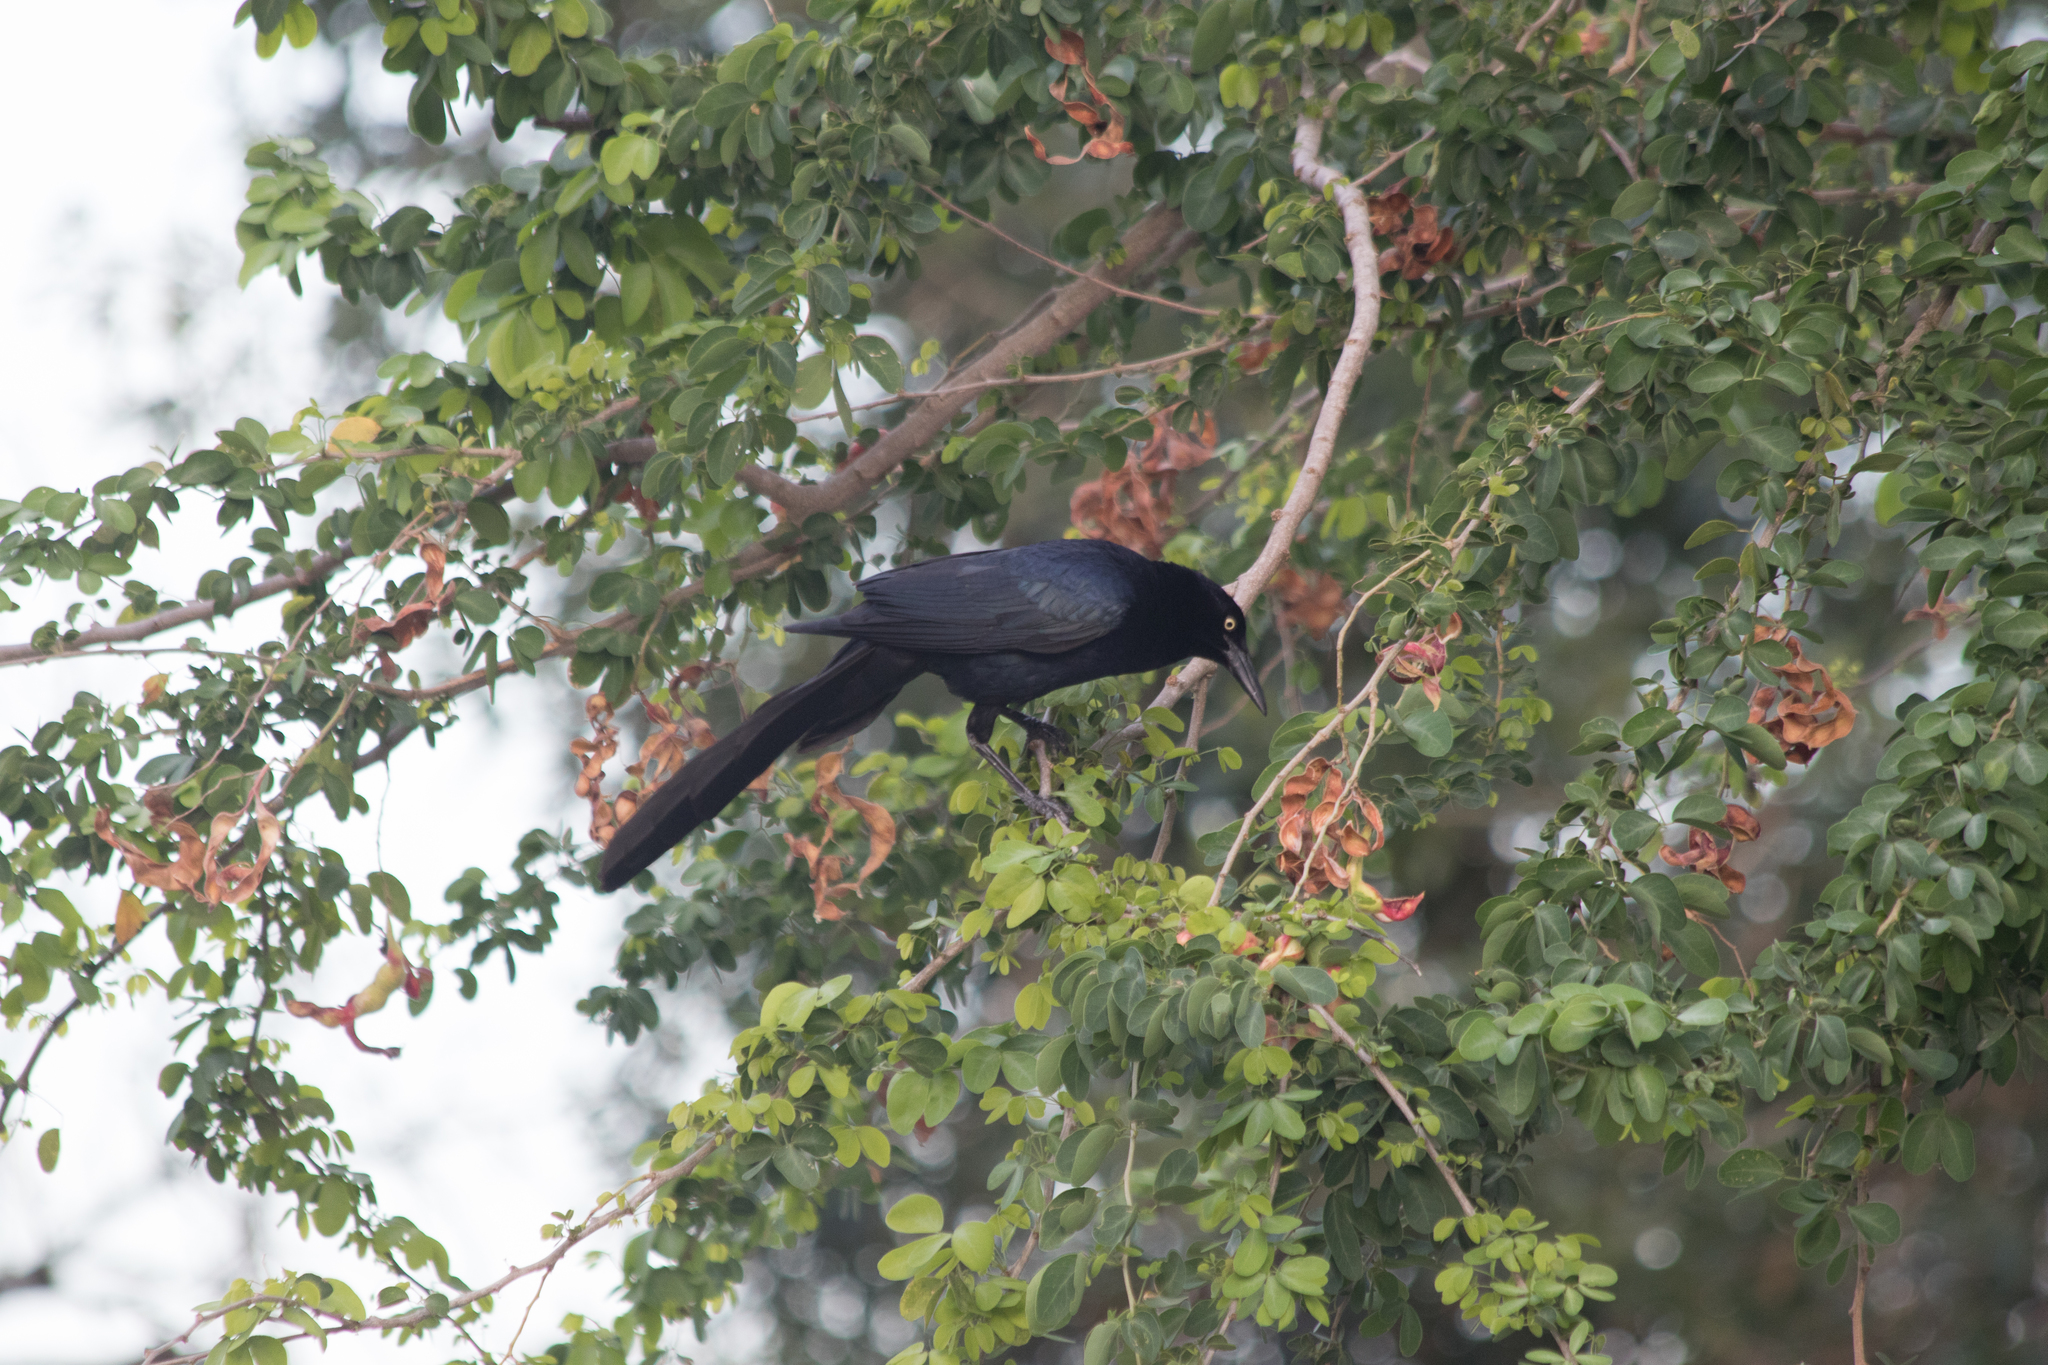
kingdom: Animalia
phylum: Chordata
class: Aves
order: Passeriformes
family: Icteridae
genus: Quiscalus
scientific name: Quiscalus mexicanus
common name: Great-tailed grackle
